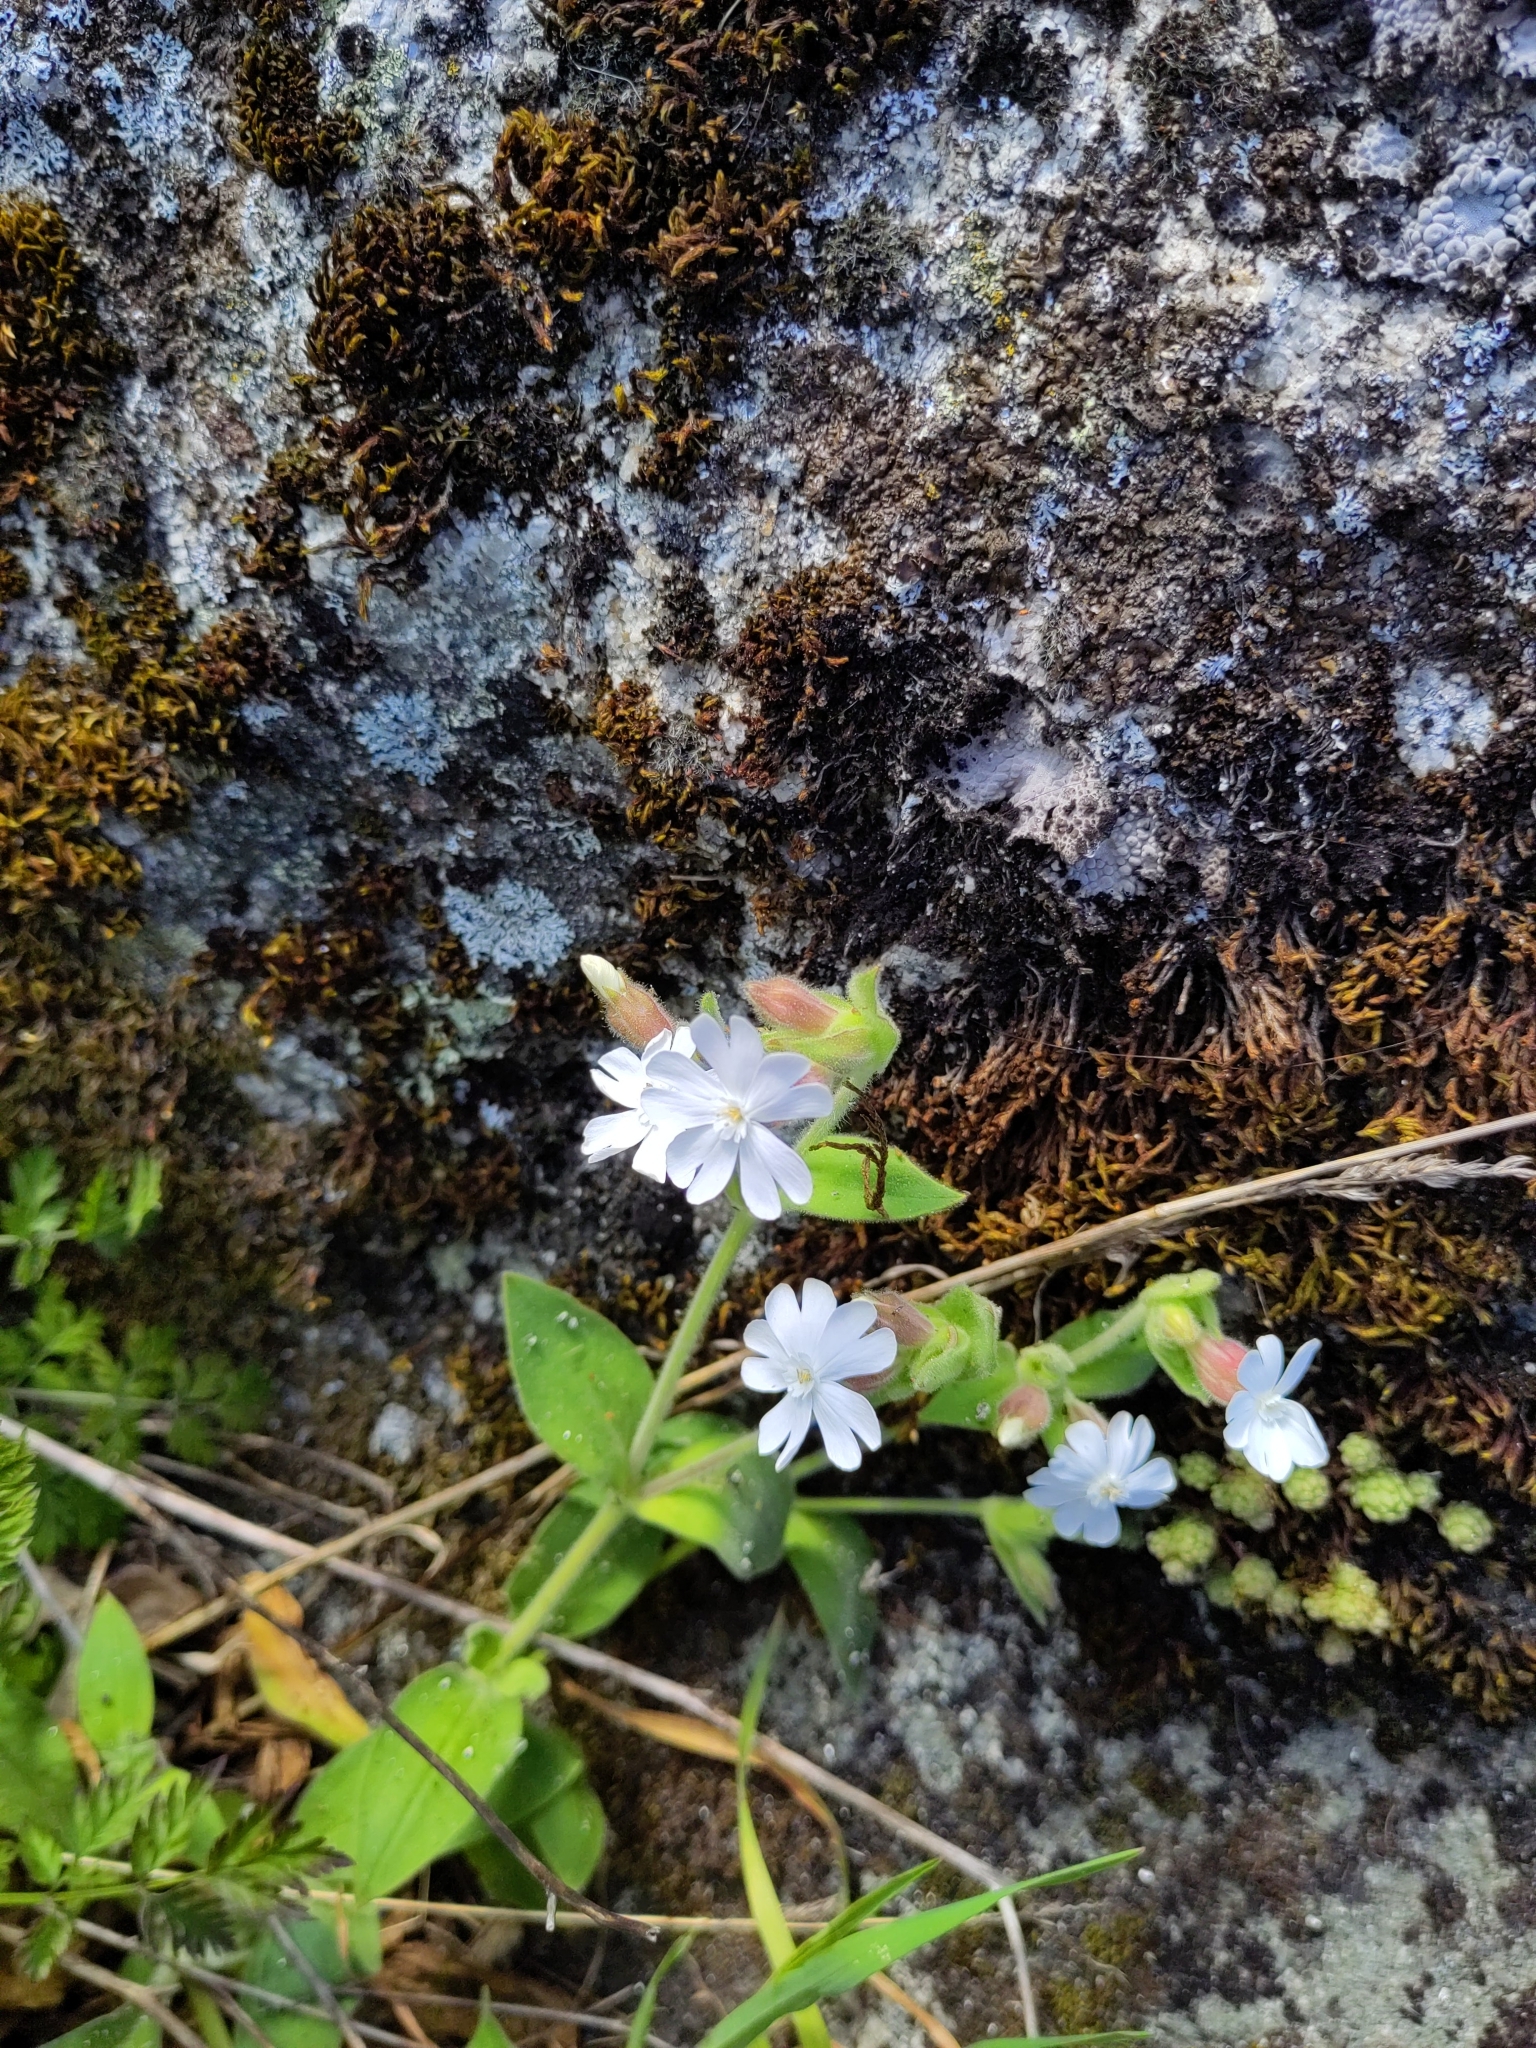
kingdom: Plantae
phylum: Tracheophyta
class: Magnoliopsida
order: Caryophyllales
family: Caryophyllaceae
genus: Silene
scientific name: Silene latifolia
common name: White campion
